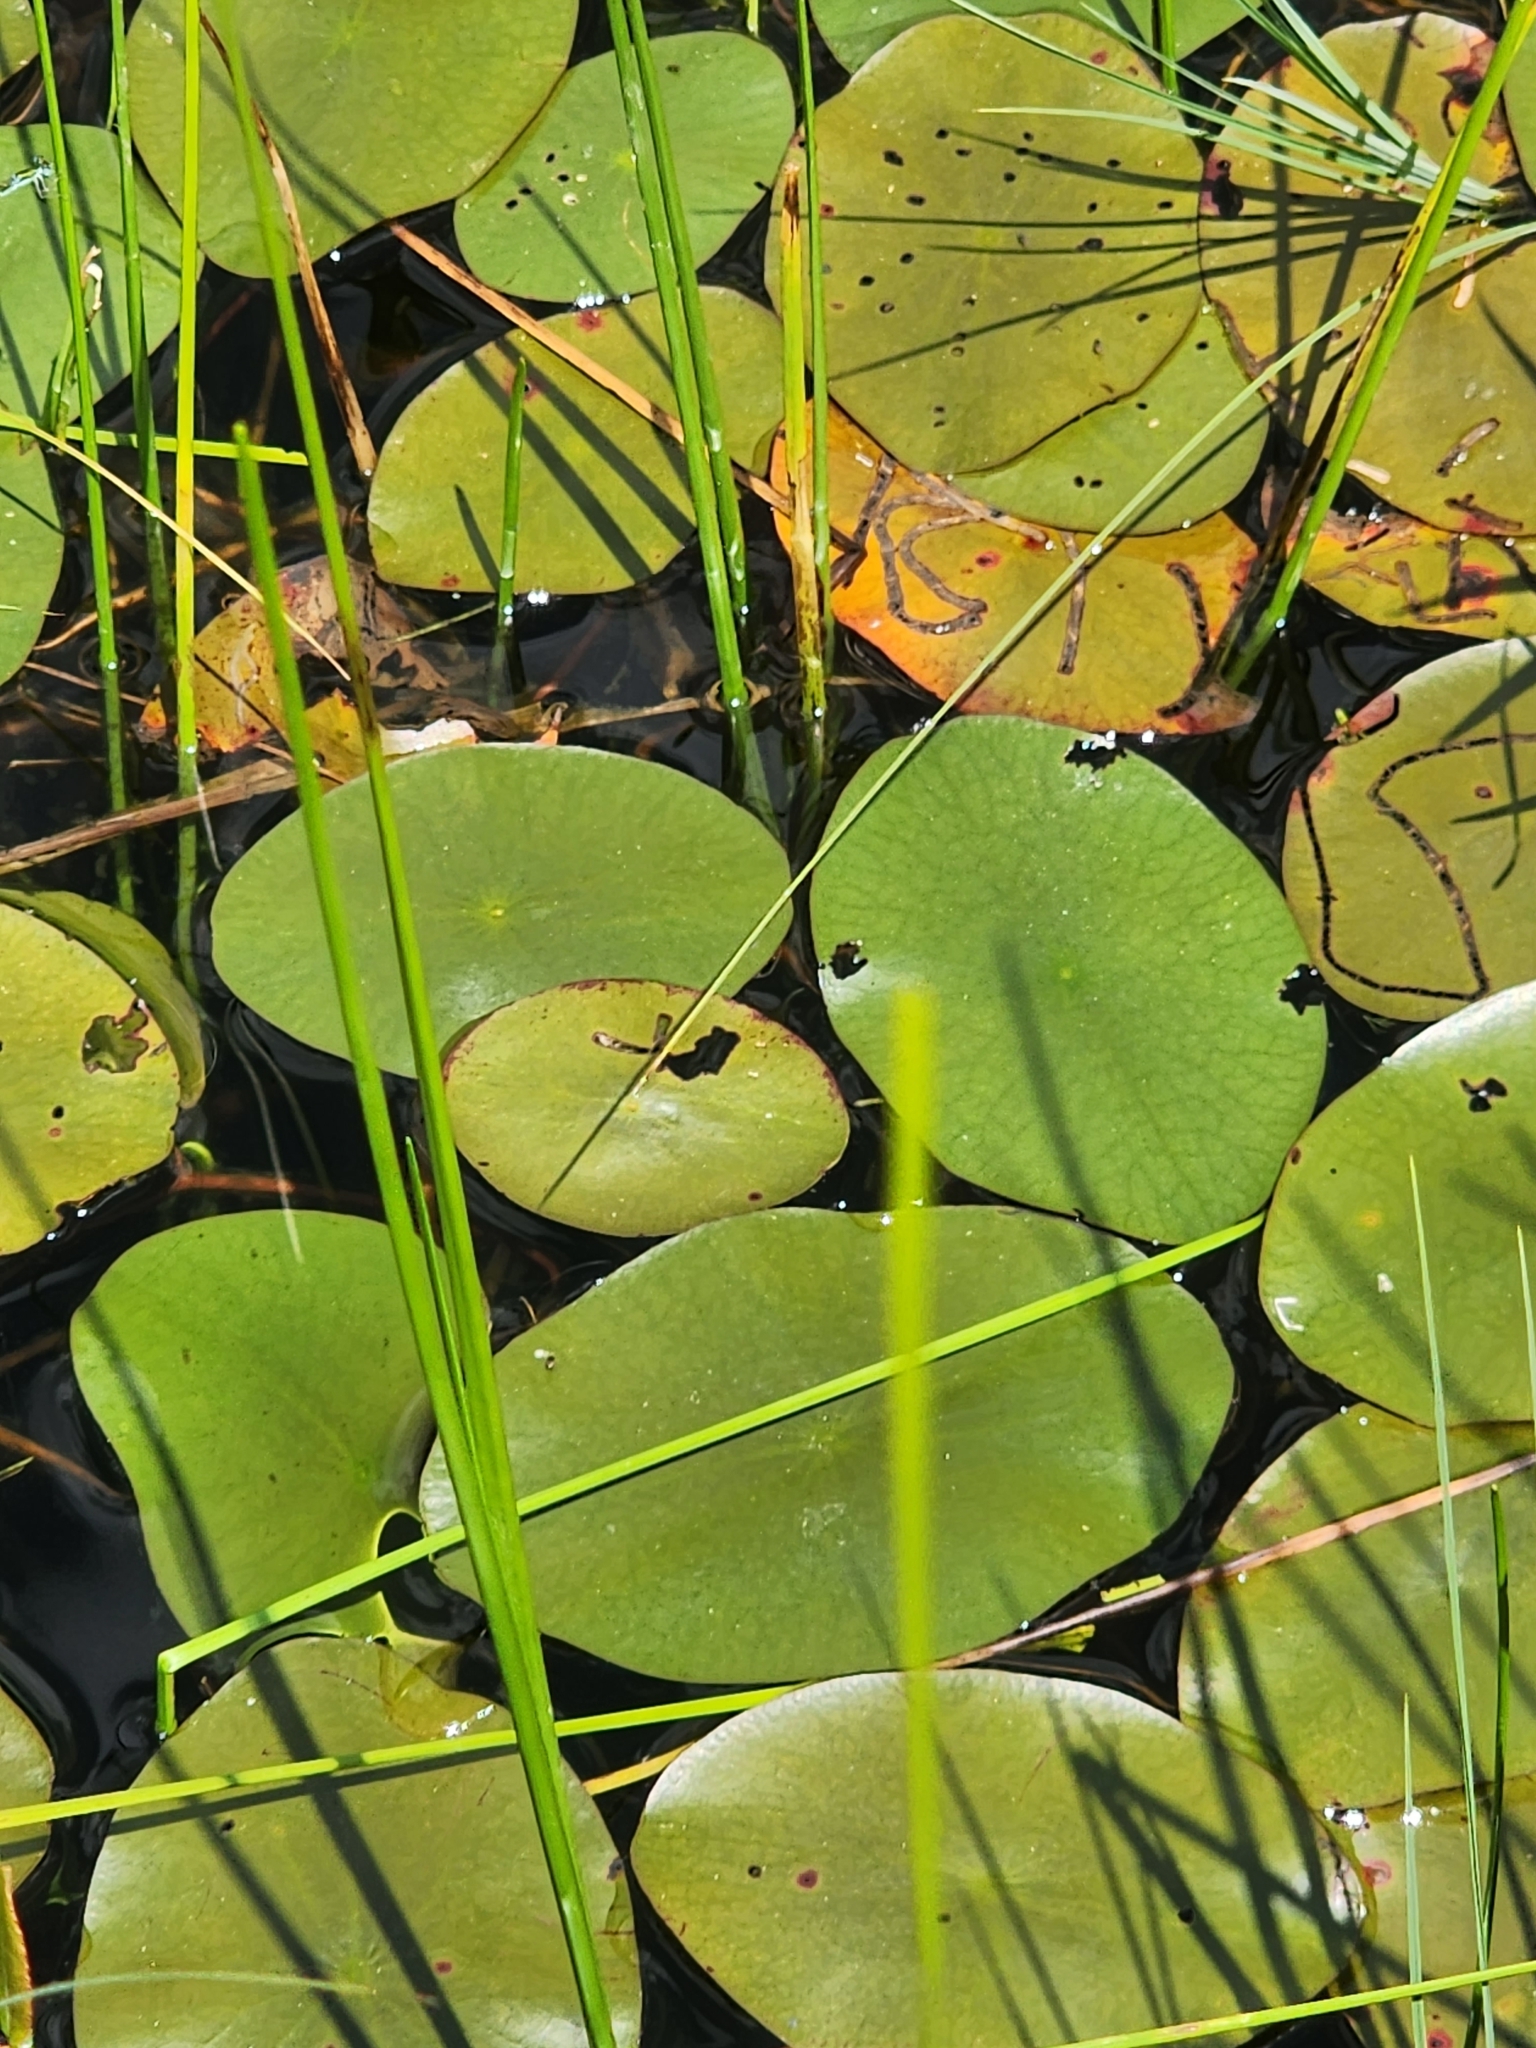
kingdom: Plantae
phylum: Tracheophyta
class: Magnoliopsida
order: Nymphaeales
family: Cabombaceae
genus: Brasenia
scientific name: Brasenia schreberi
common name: Water-shield
